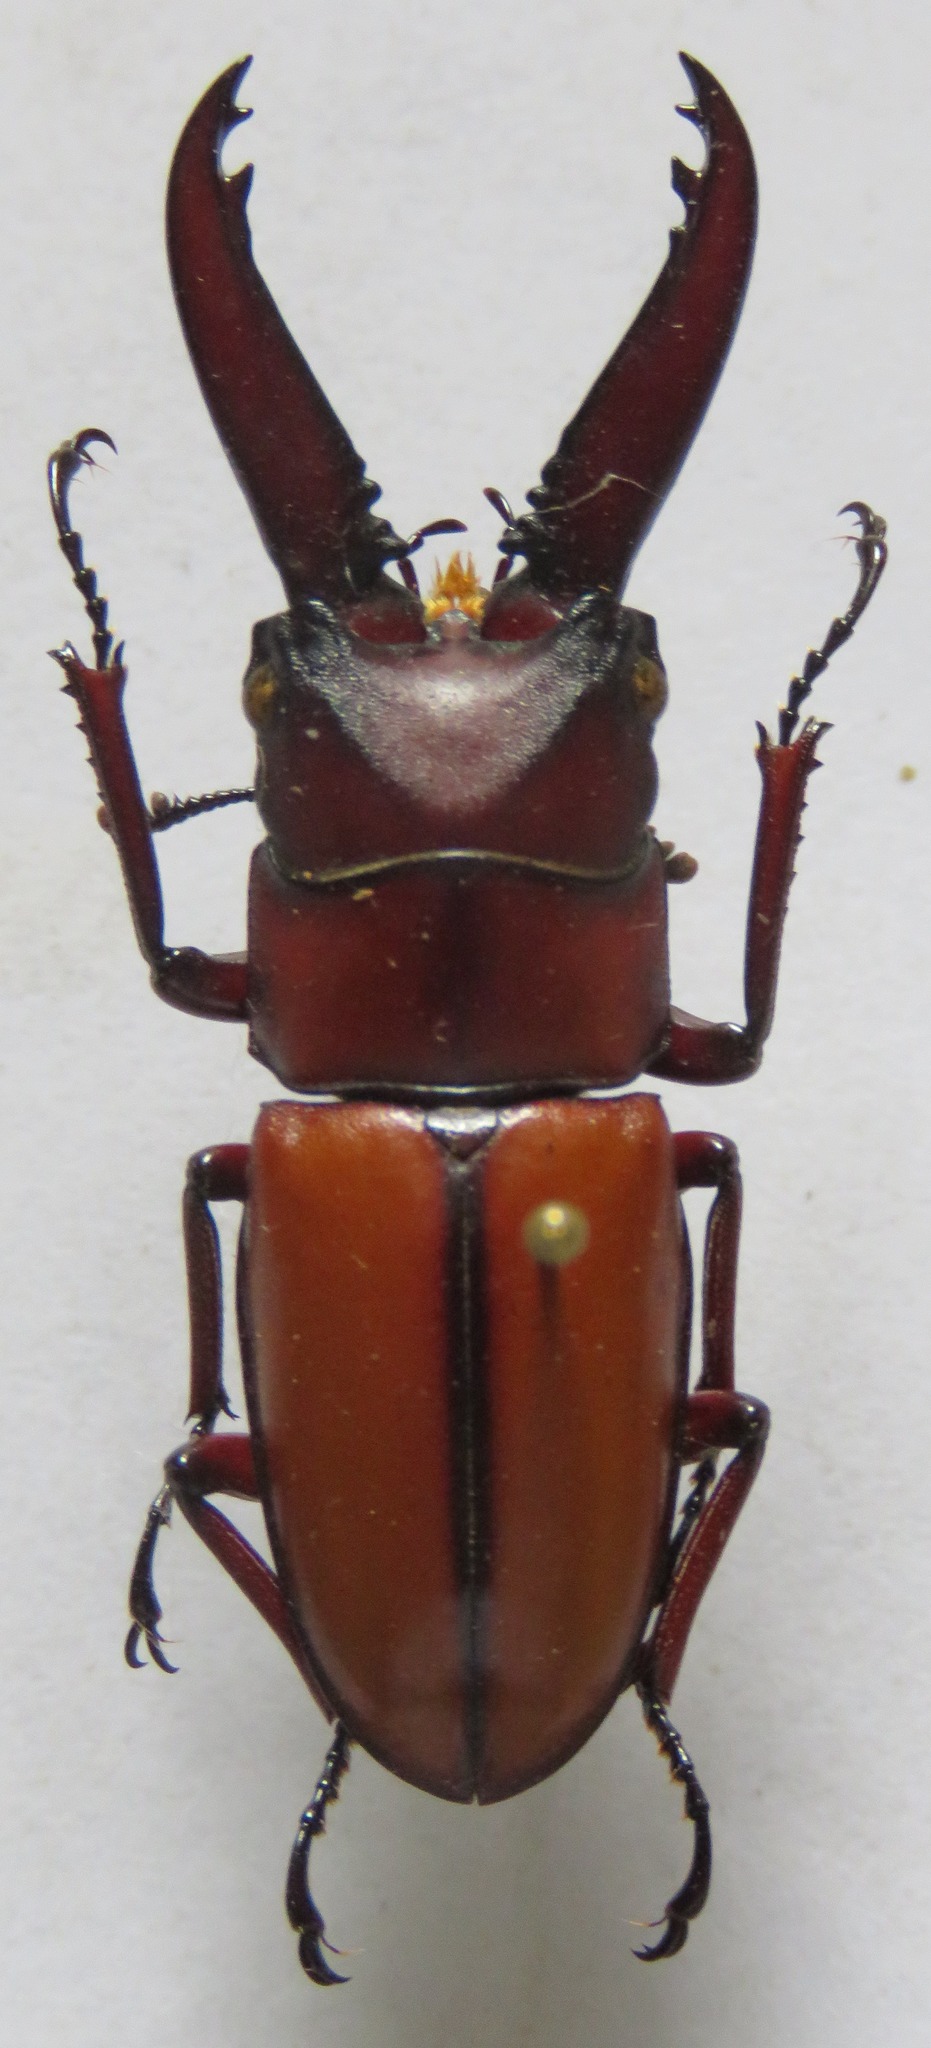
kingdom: Animalia
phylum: Arthropoda
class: Insecta
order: Coleoptera
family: Lucanidae
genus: Prosopocoilus
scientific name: Prosopocoilus mohnikei
